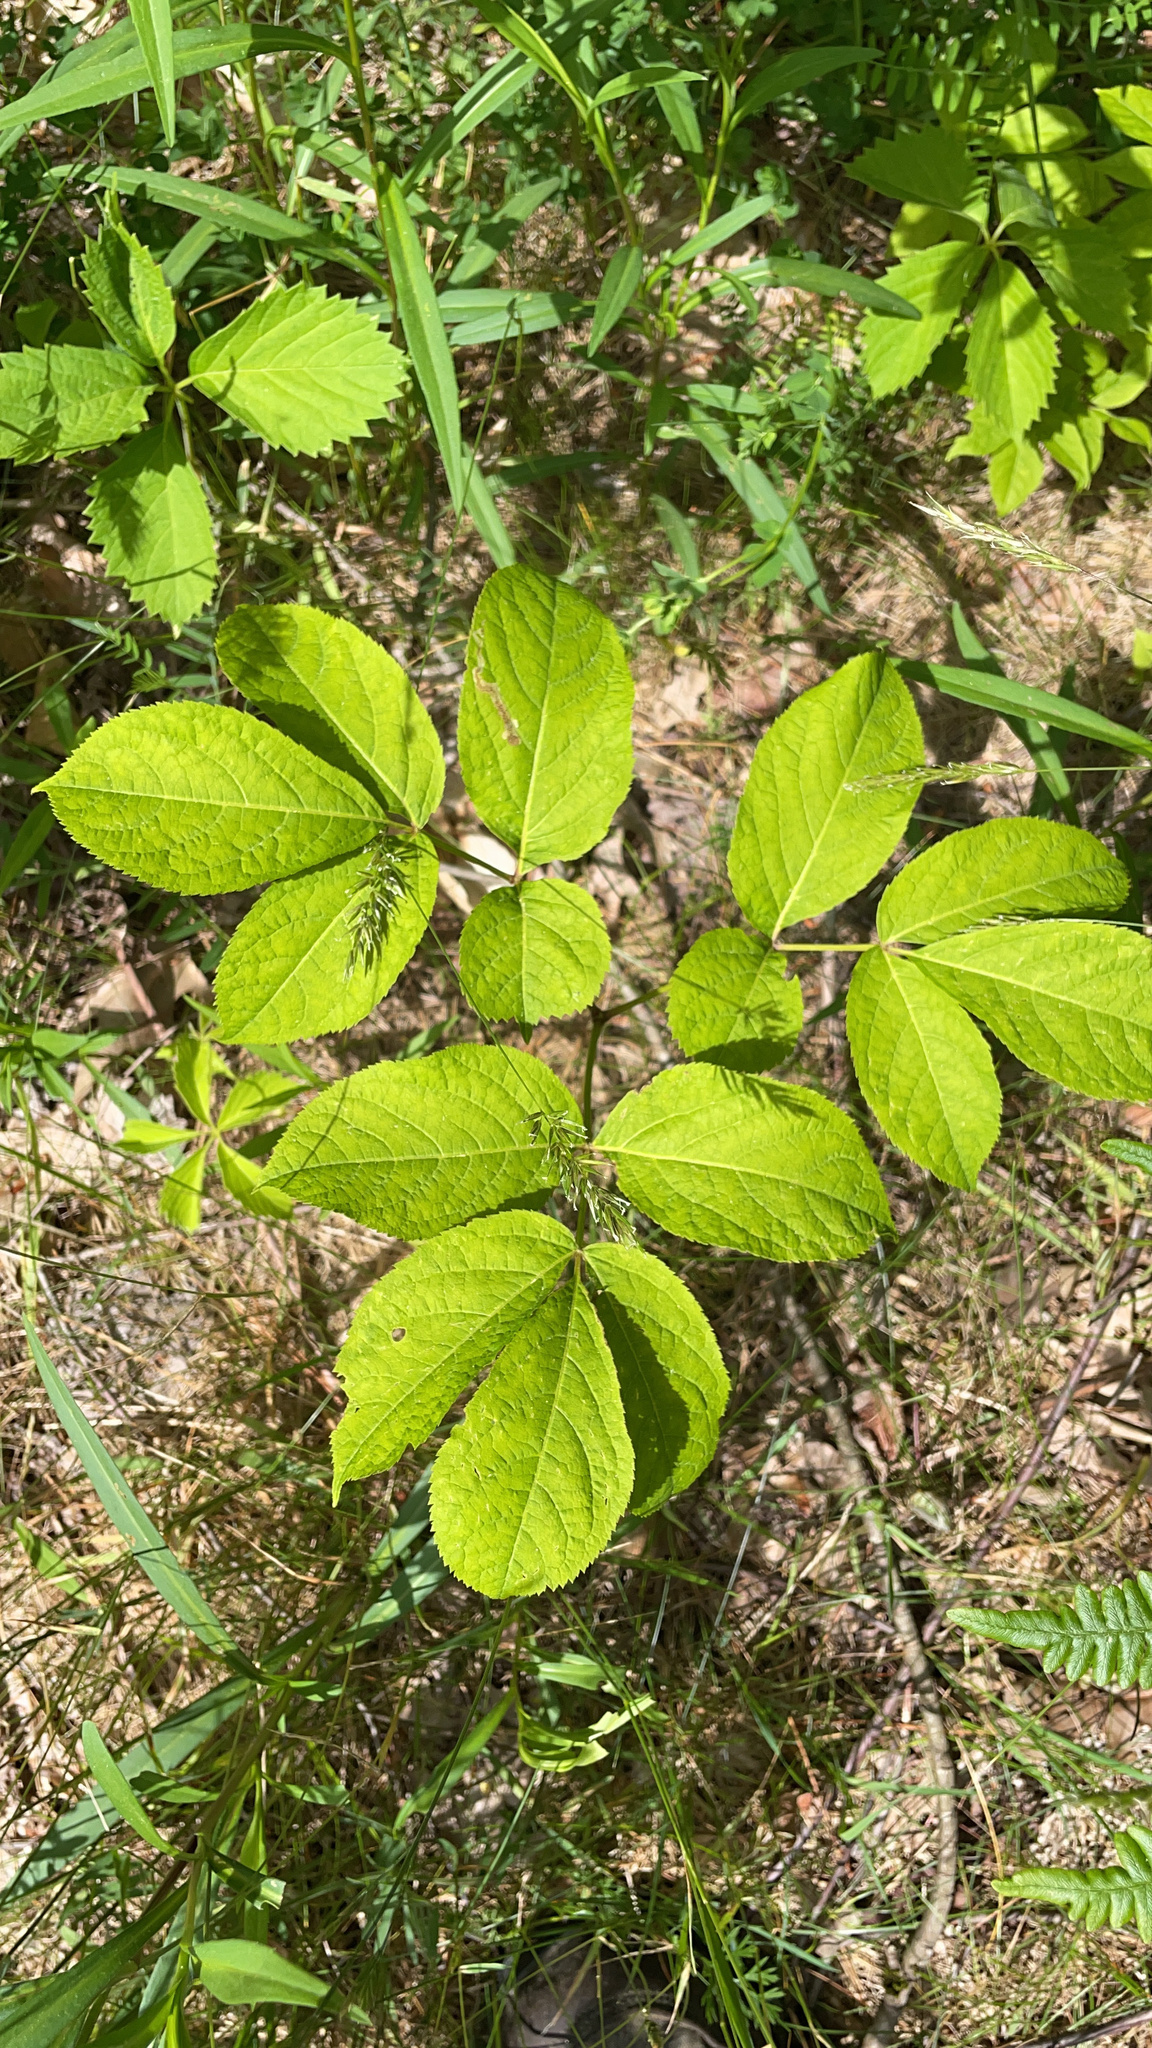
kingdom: Plantae
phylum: Tracheophyta
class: Magnoliopsida
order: Apiales
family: Araliaceae
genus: Aralia
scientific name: Aralia nudicaulis
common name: Wild sarsaparilla
